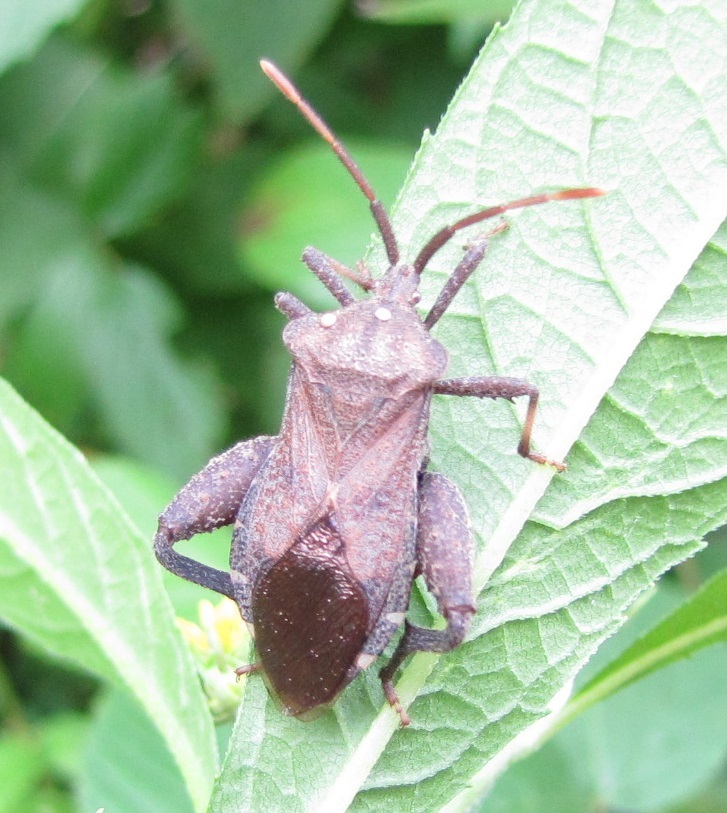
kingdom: Animalia
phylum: Arthropoda
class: Insecta
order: Hemiptera
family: Coreidae
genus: Piezogaster
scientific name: Piezogaster calcarator
